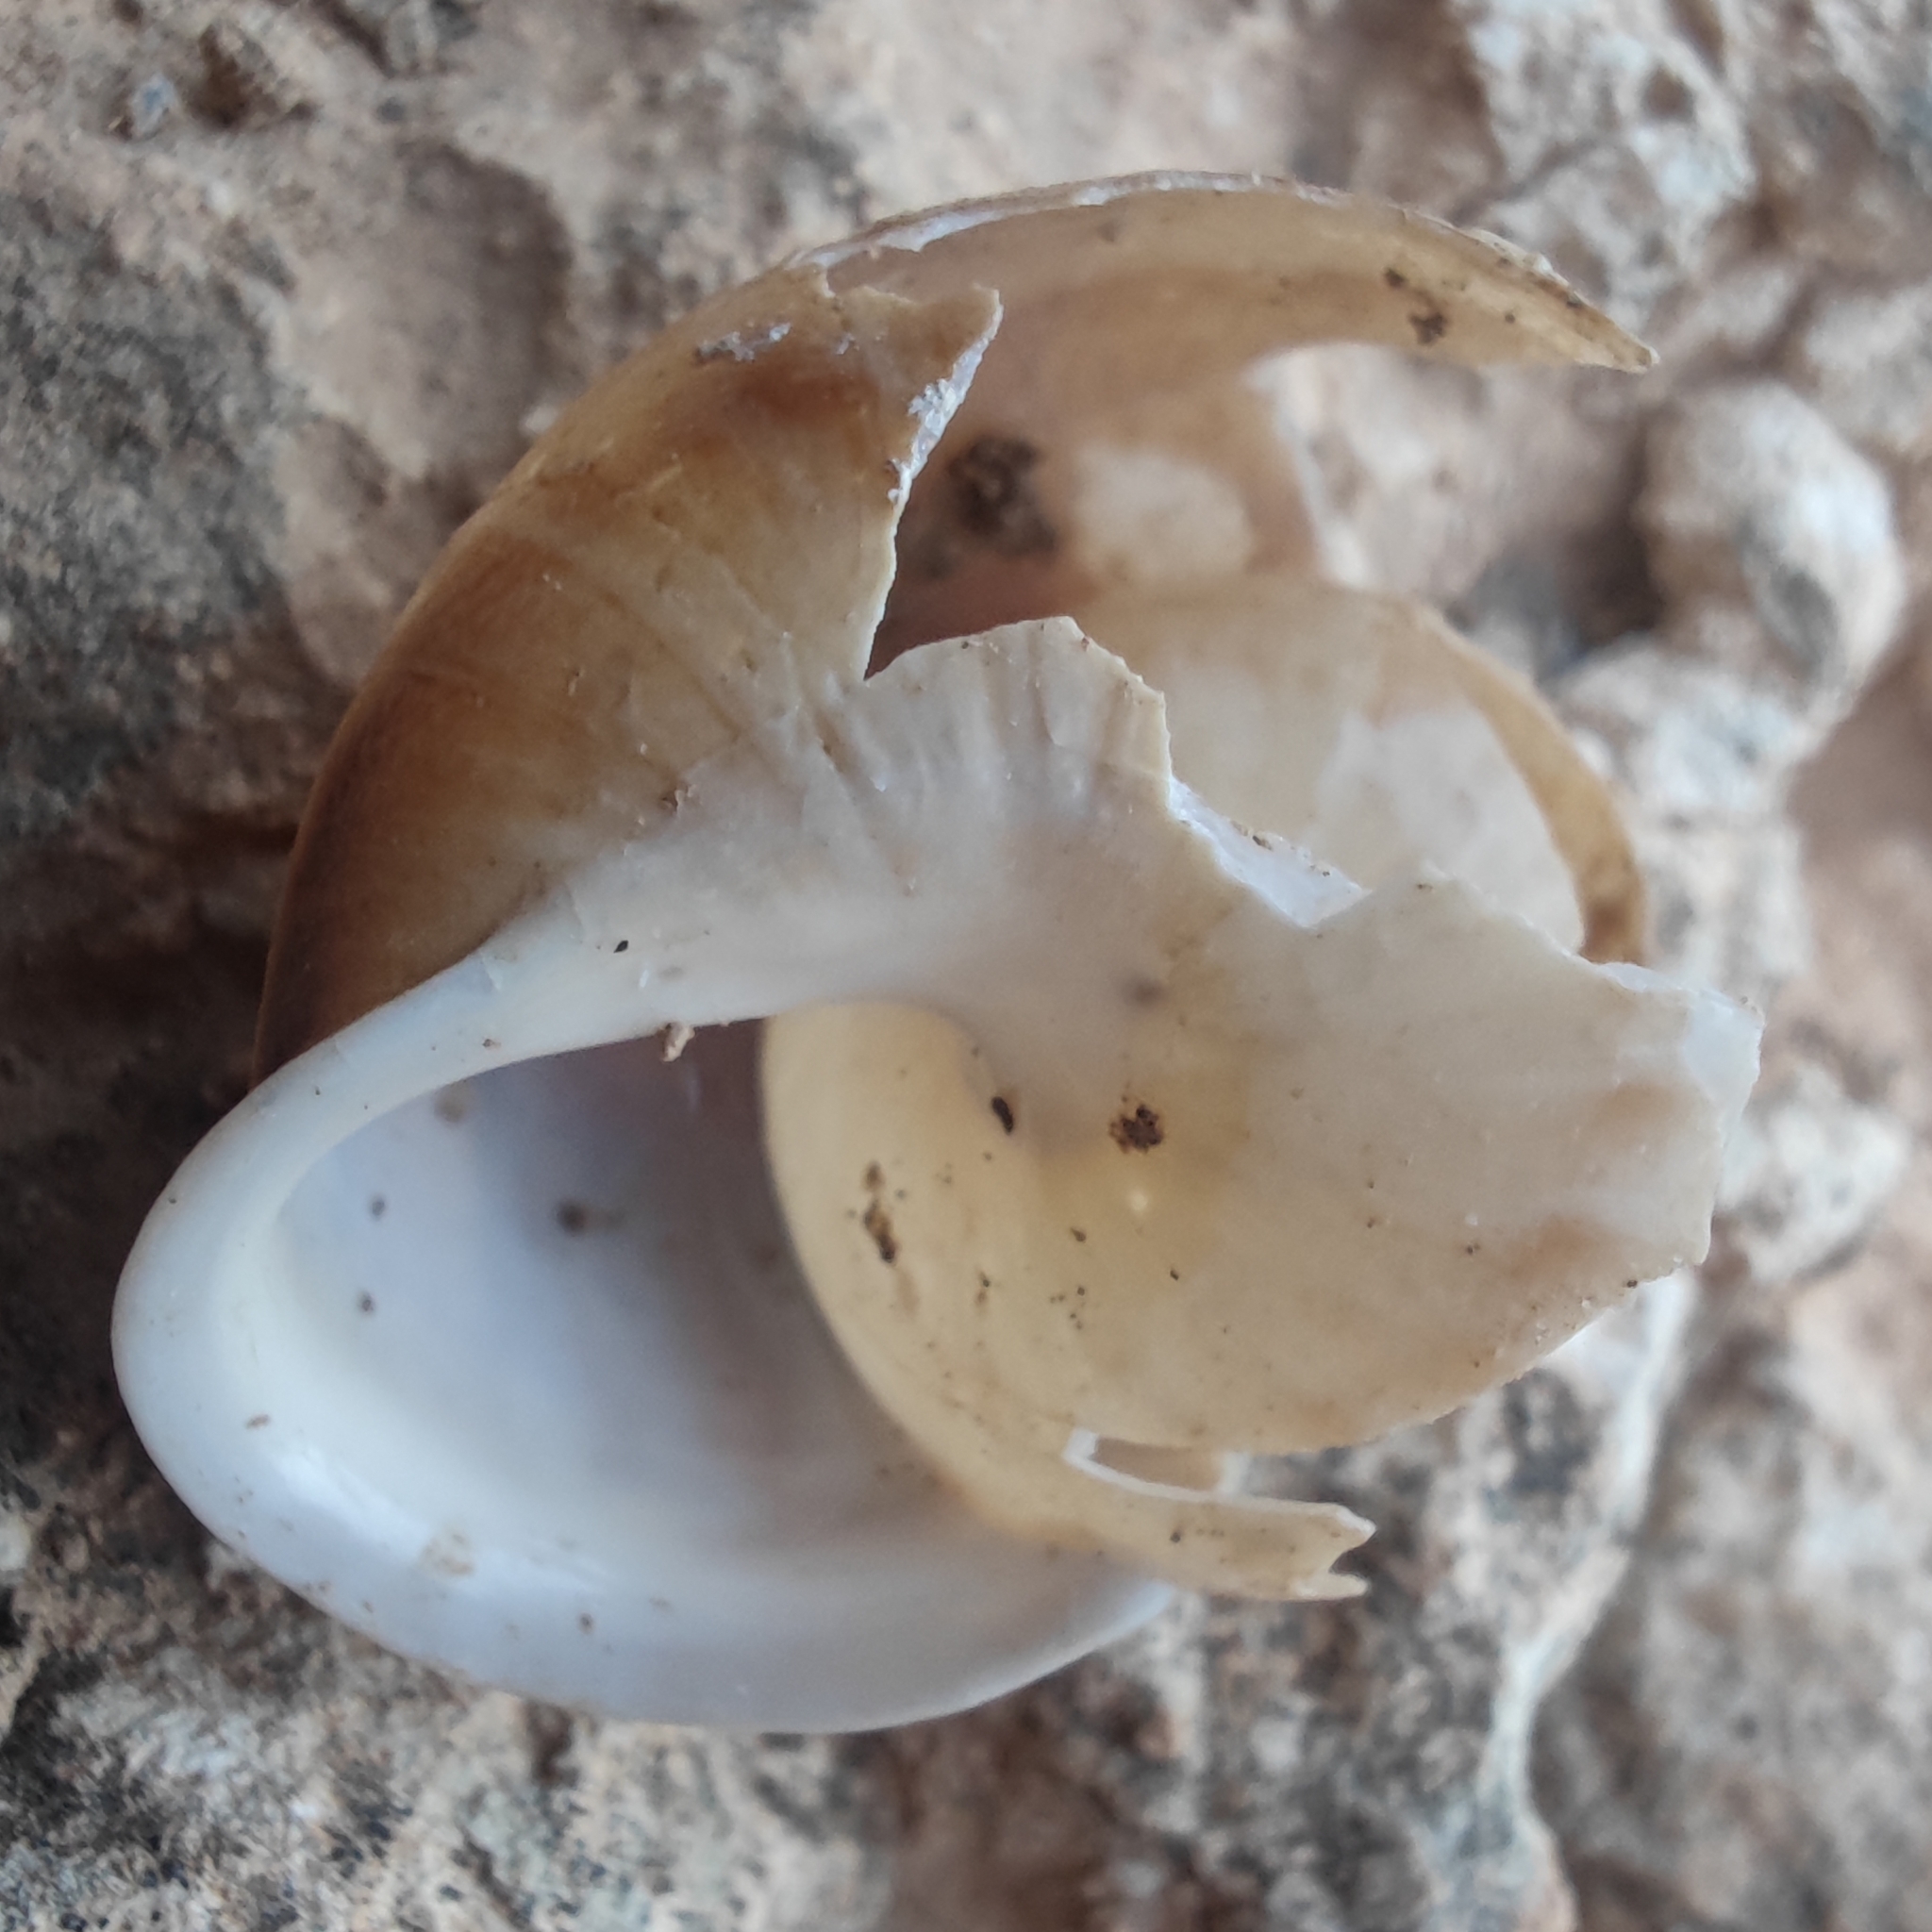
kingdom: Animalia
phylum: Mollusca
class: Gastropoda
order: Stylommatophora
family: Helicidae
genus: Eobania
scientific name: Eobania vermiculata
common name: Chocolateband snail
